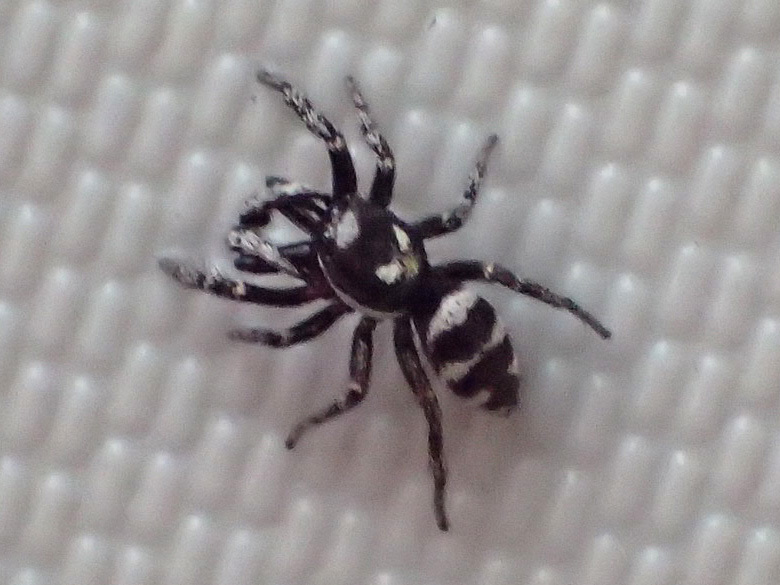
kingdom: Animalia
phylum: Arthropoda
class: Arachnida
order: Araneae
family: Salticidae
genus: Salticus
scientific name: Salticus scenicus
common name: Zebra jumper
